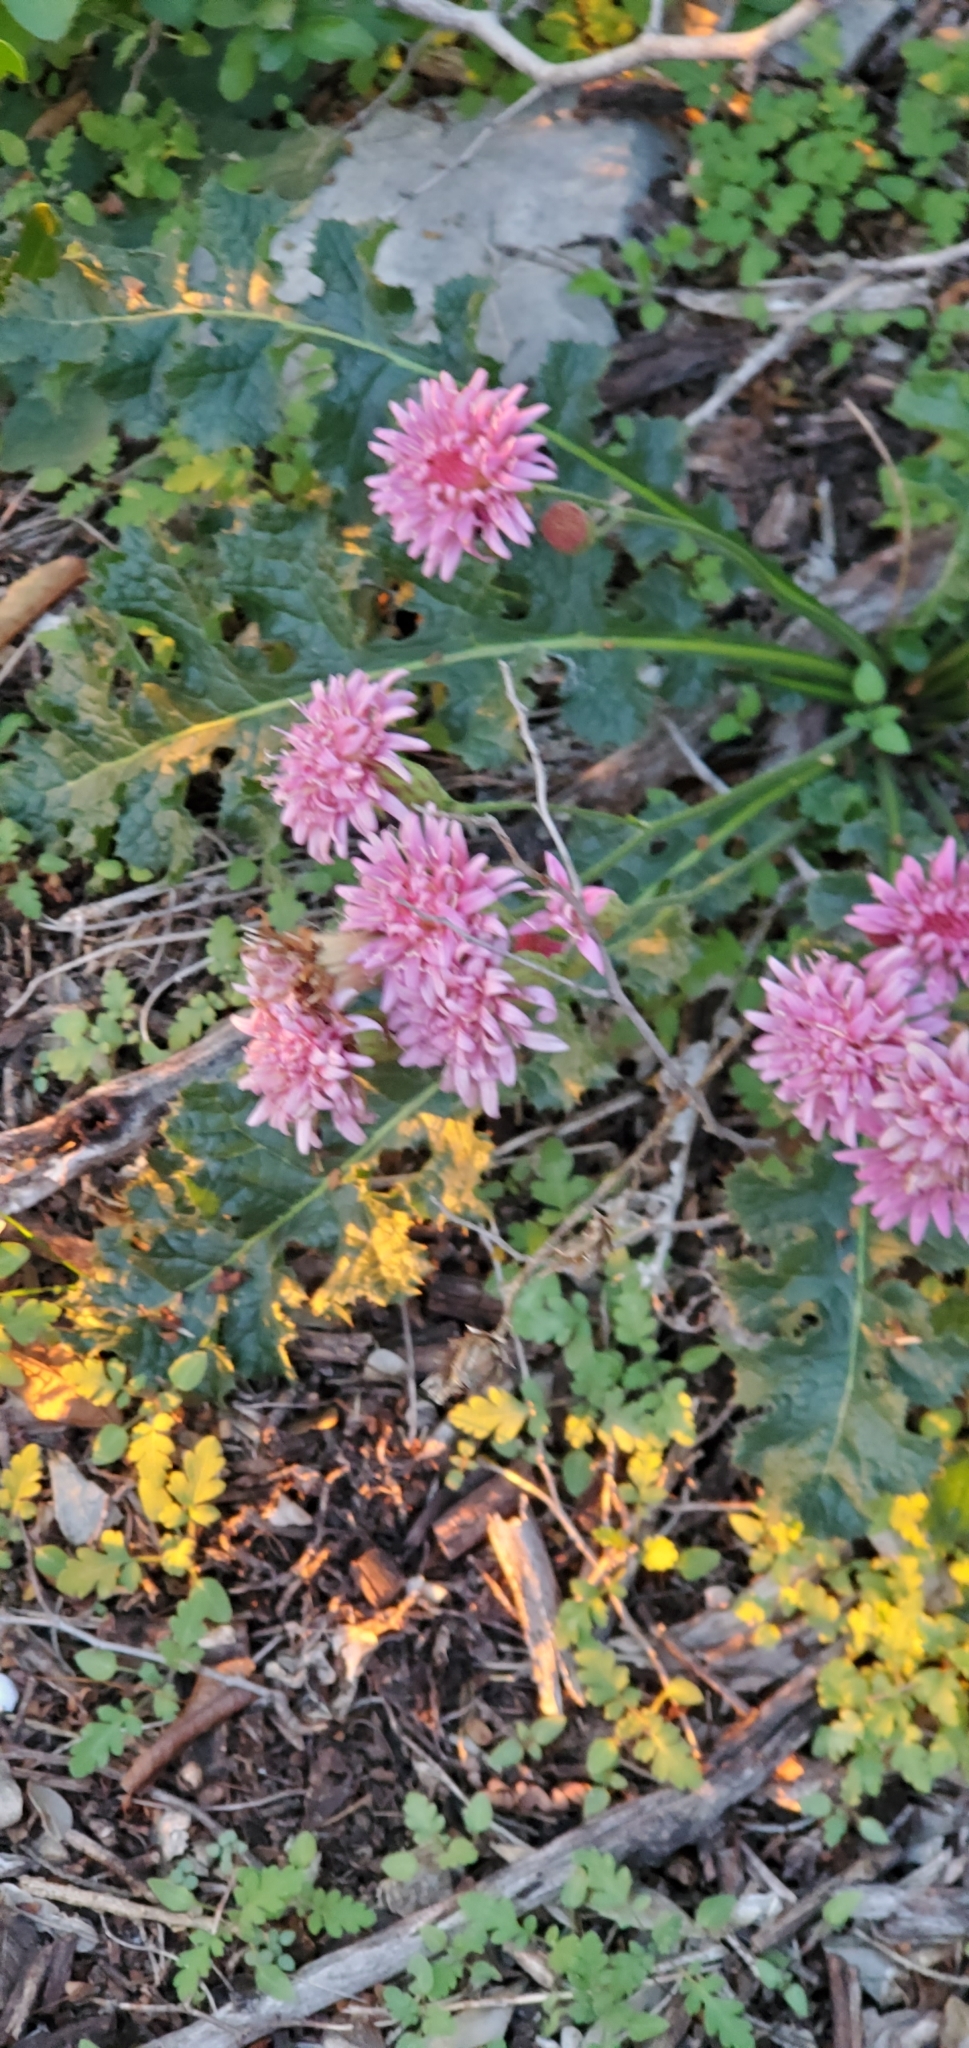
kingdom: Plantae
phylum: Tracheophyta
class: Magnoliopsida
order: Asterales
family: Asteraceae
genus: Acourtia
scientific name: Acourtia runcinata
